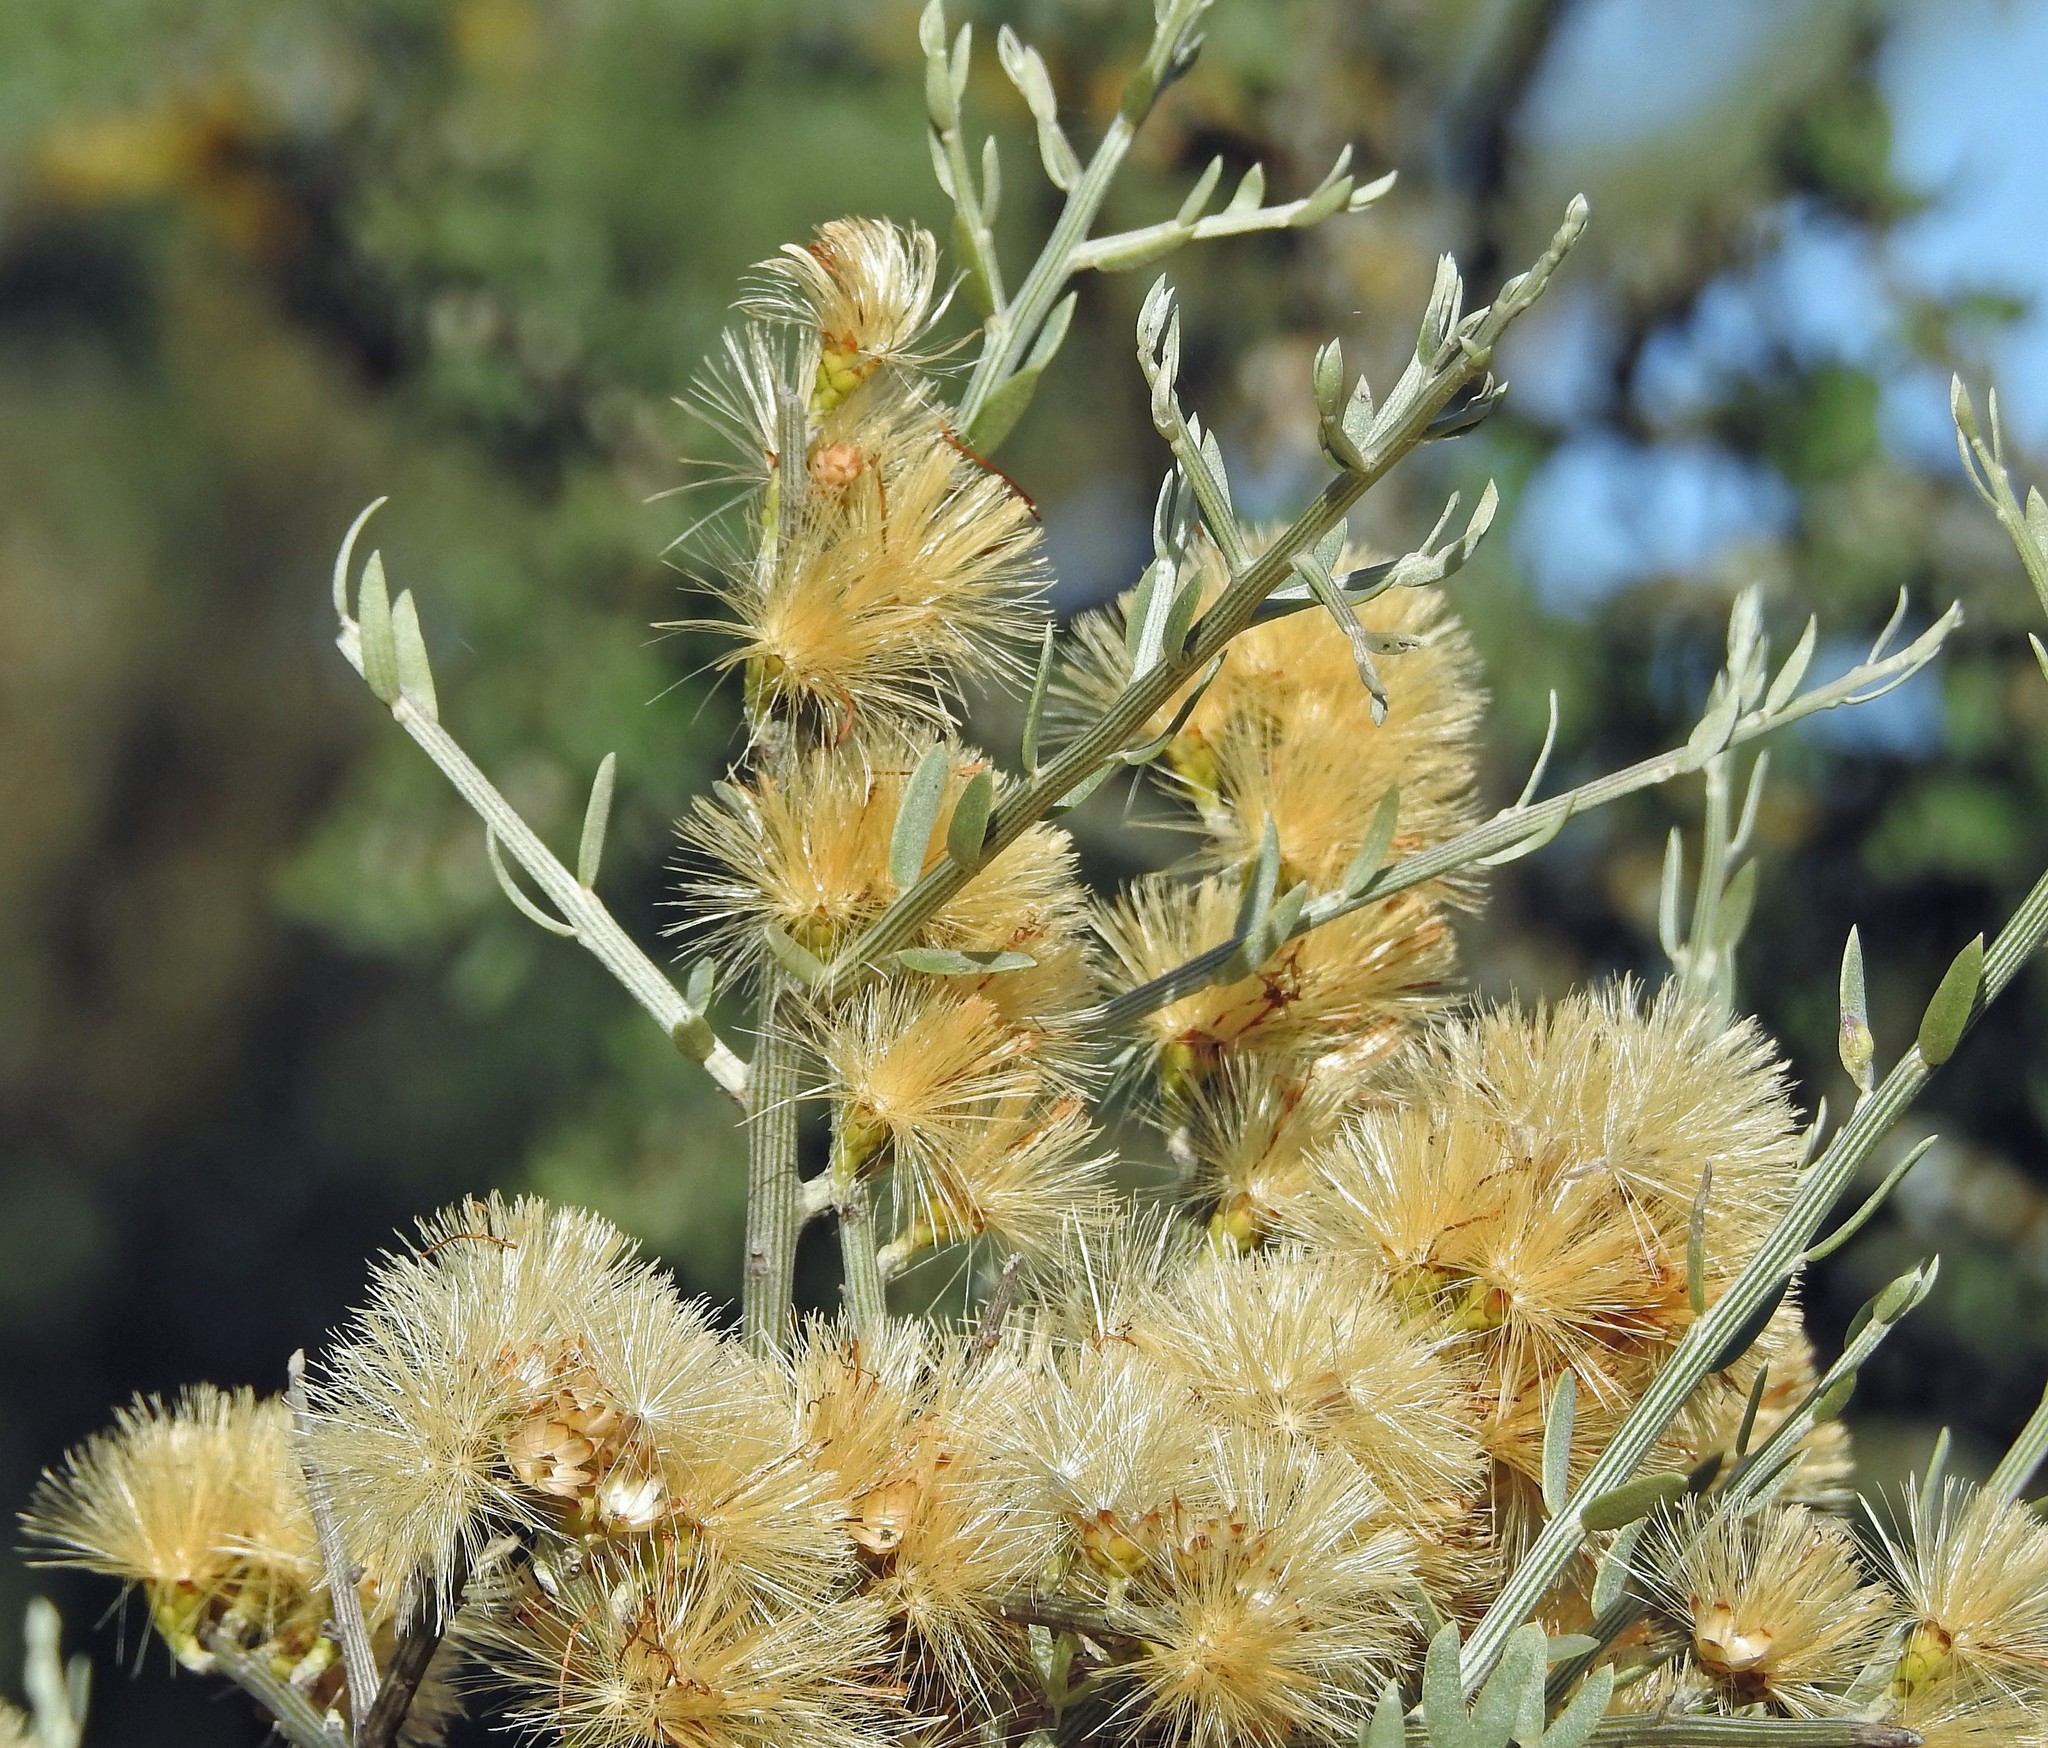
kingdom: Plantae
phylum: Tracheophyta
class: Magnoliopsida
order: Asterales
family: Asteraceae
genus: Cyclolepis
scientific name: Cyclolepis genistoides
